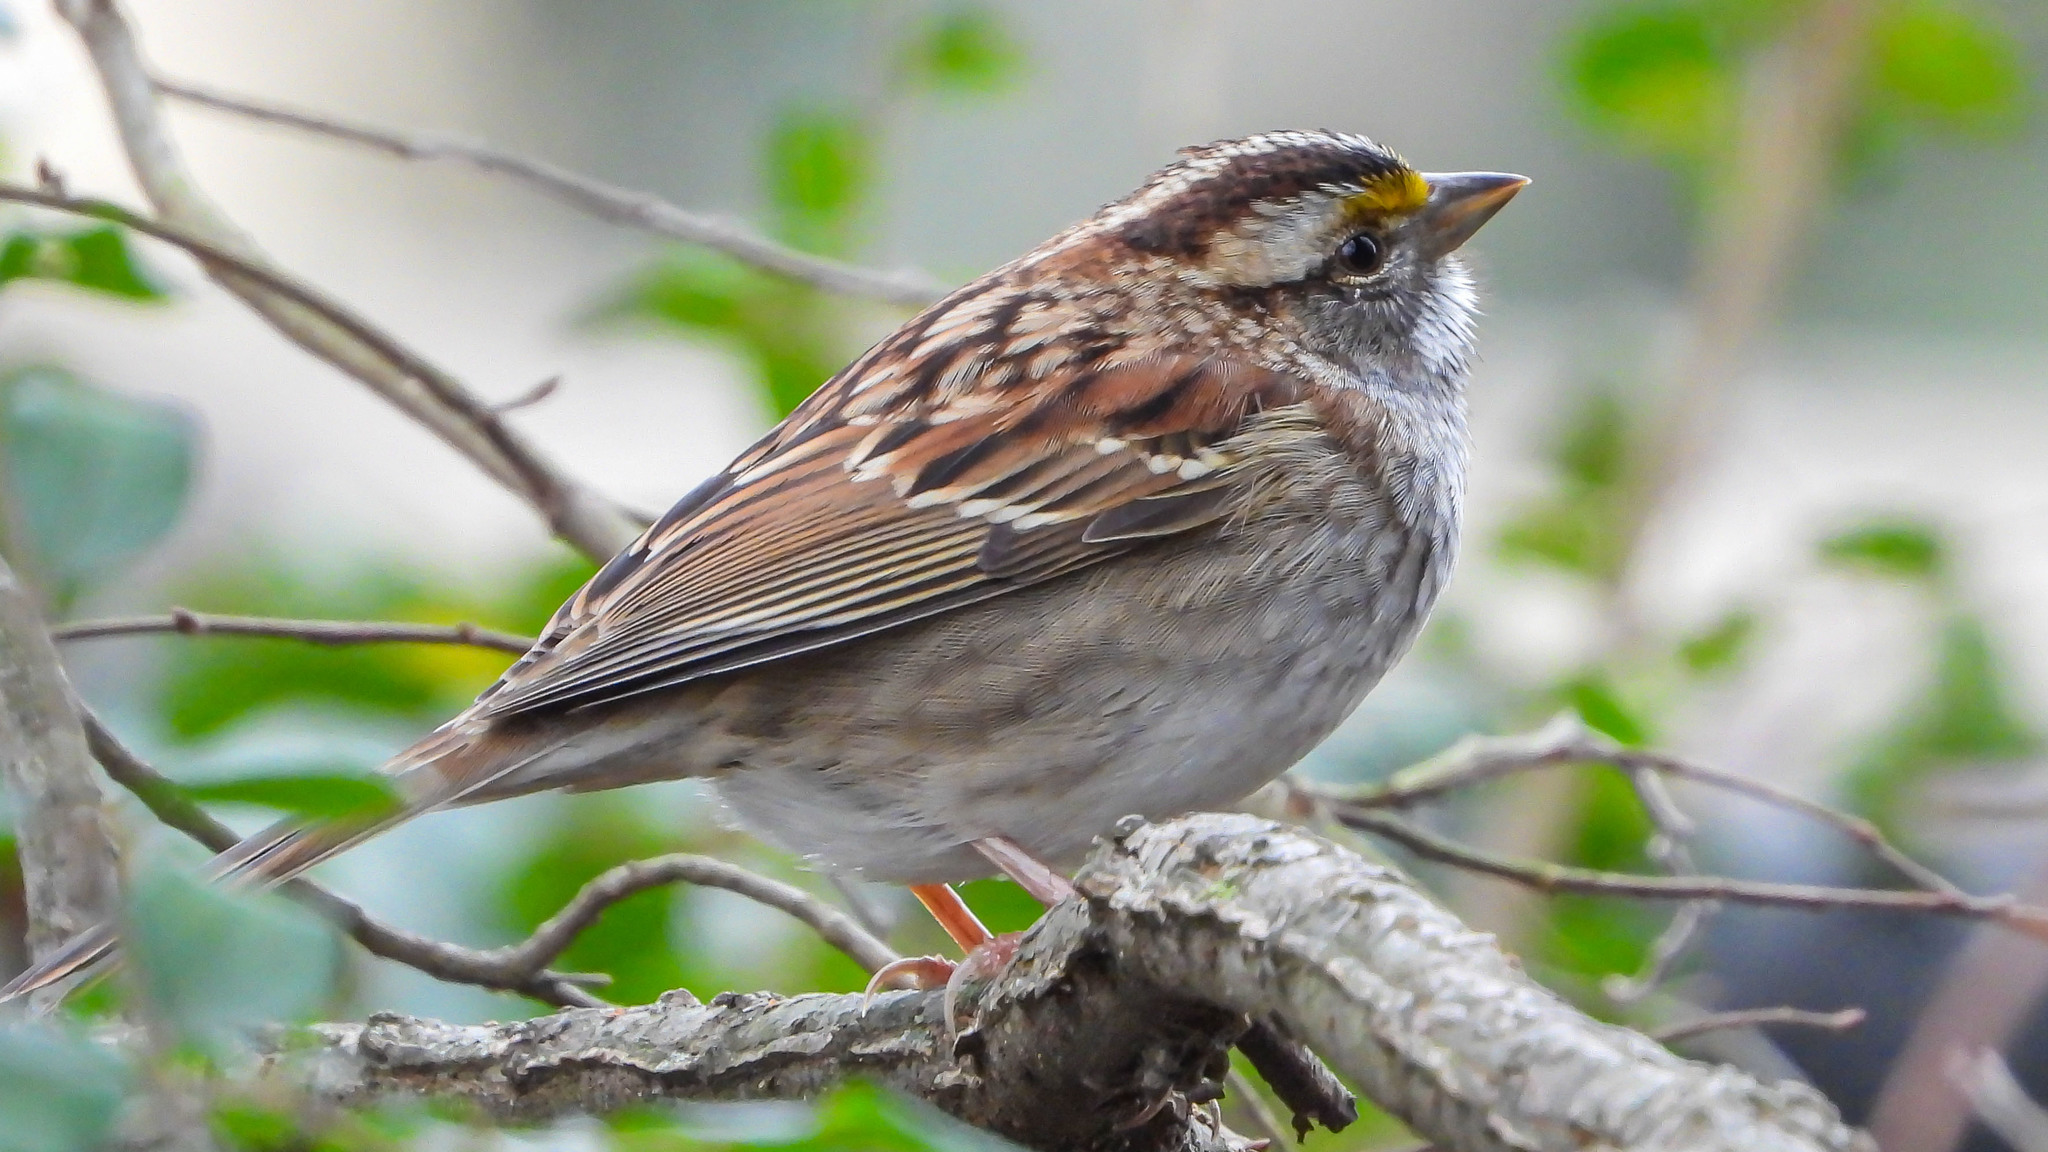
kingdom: Animalia
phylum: Chordata
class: Aves
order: Passeriformes
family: Passerellidae
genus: Zonotrichia
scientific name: Zonotrichia albicollis
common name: White-throated sparrow
